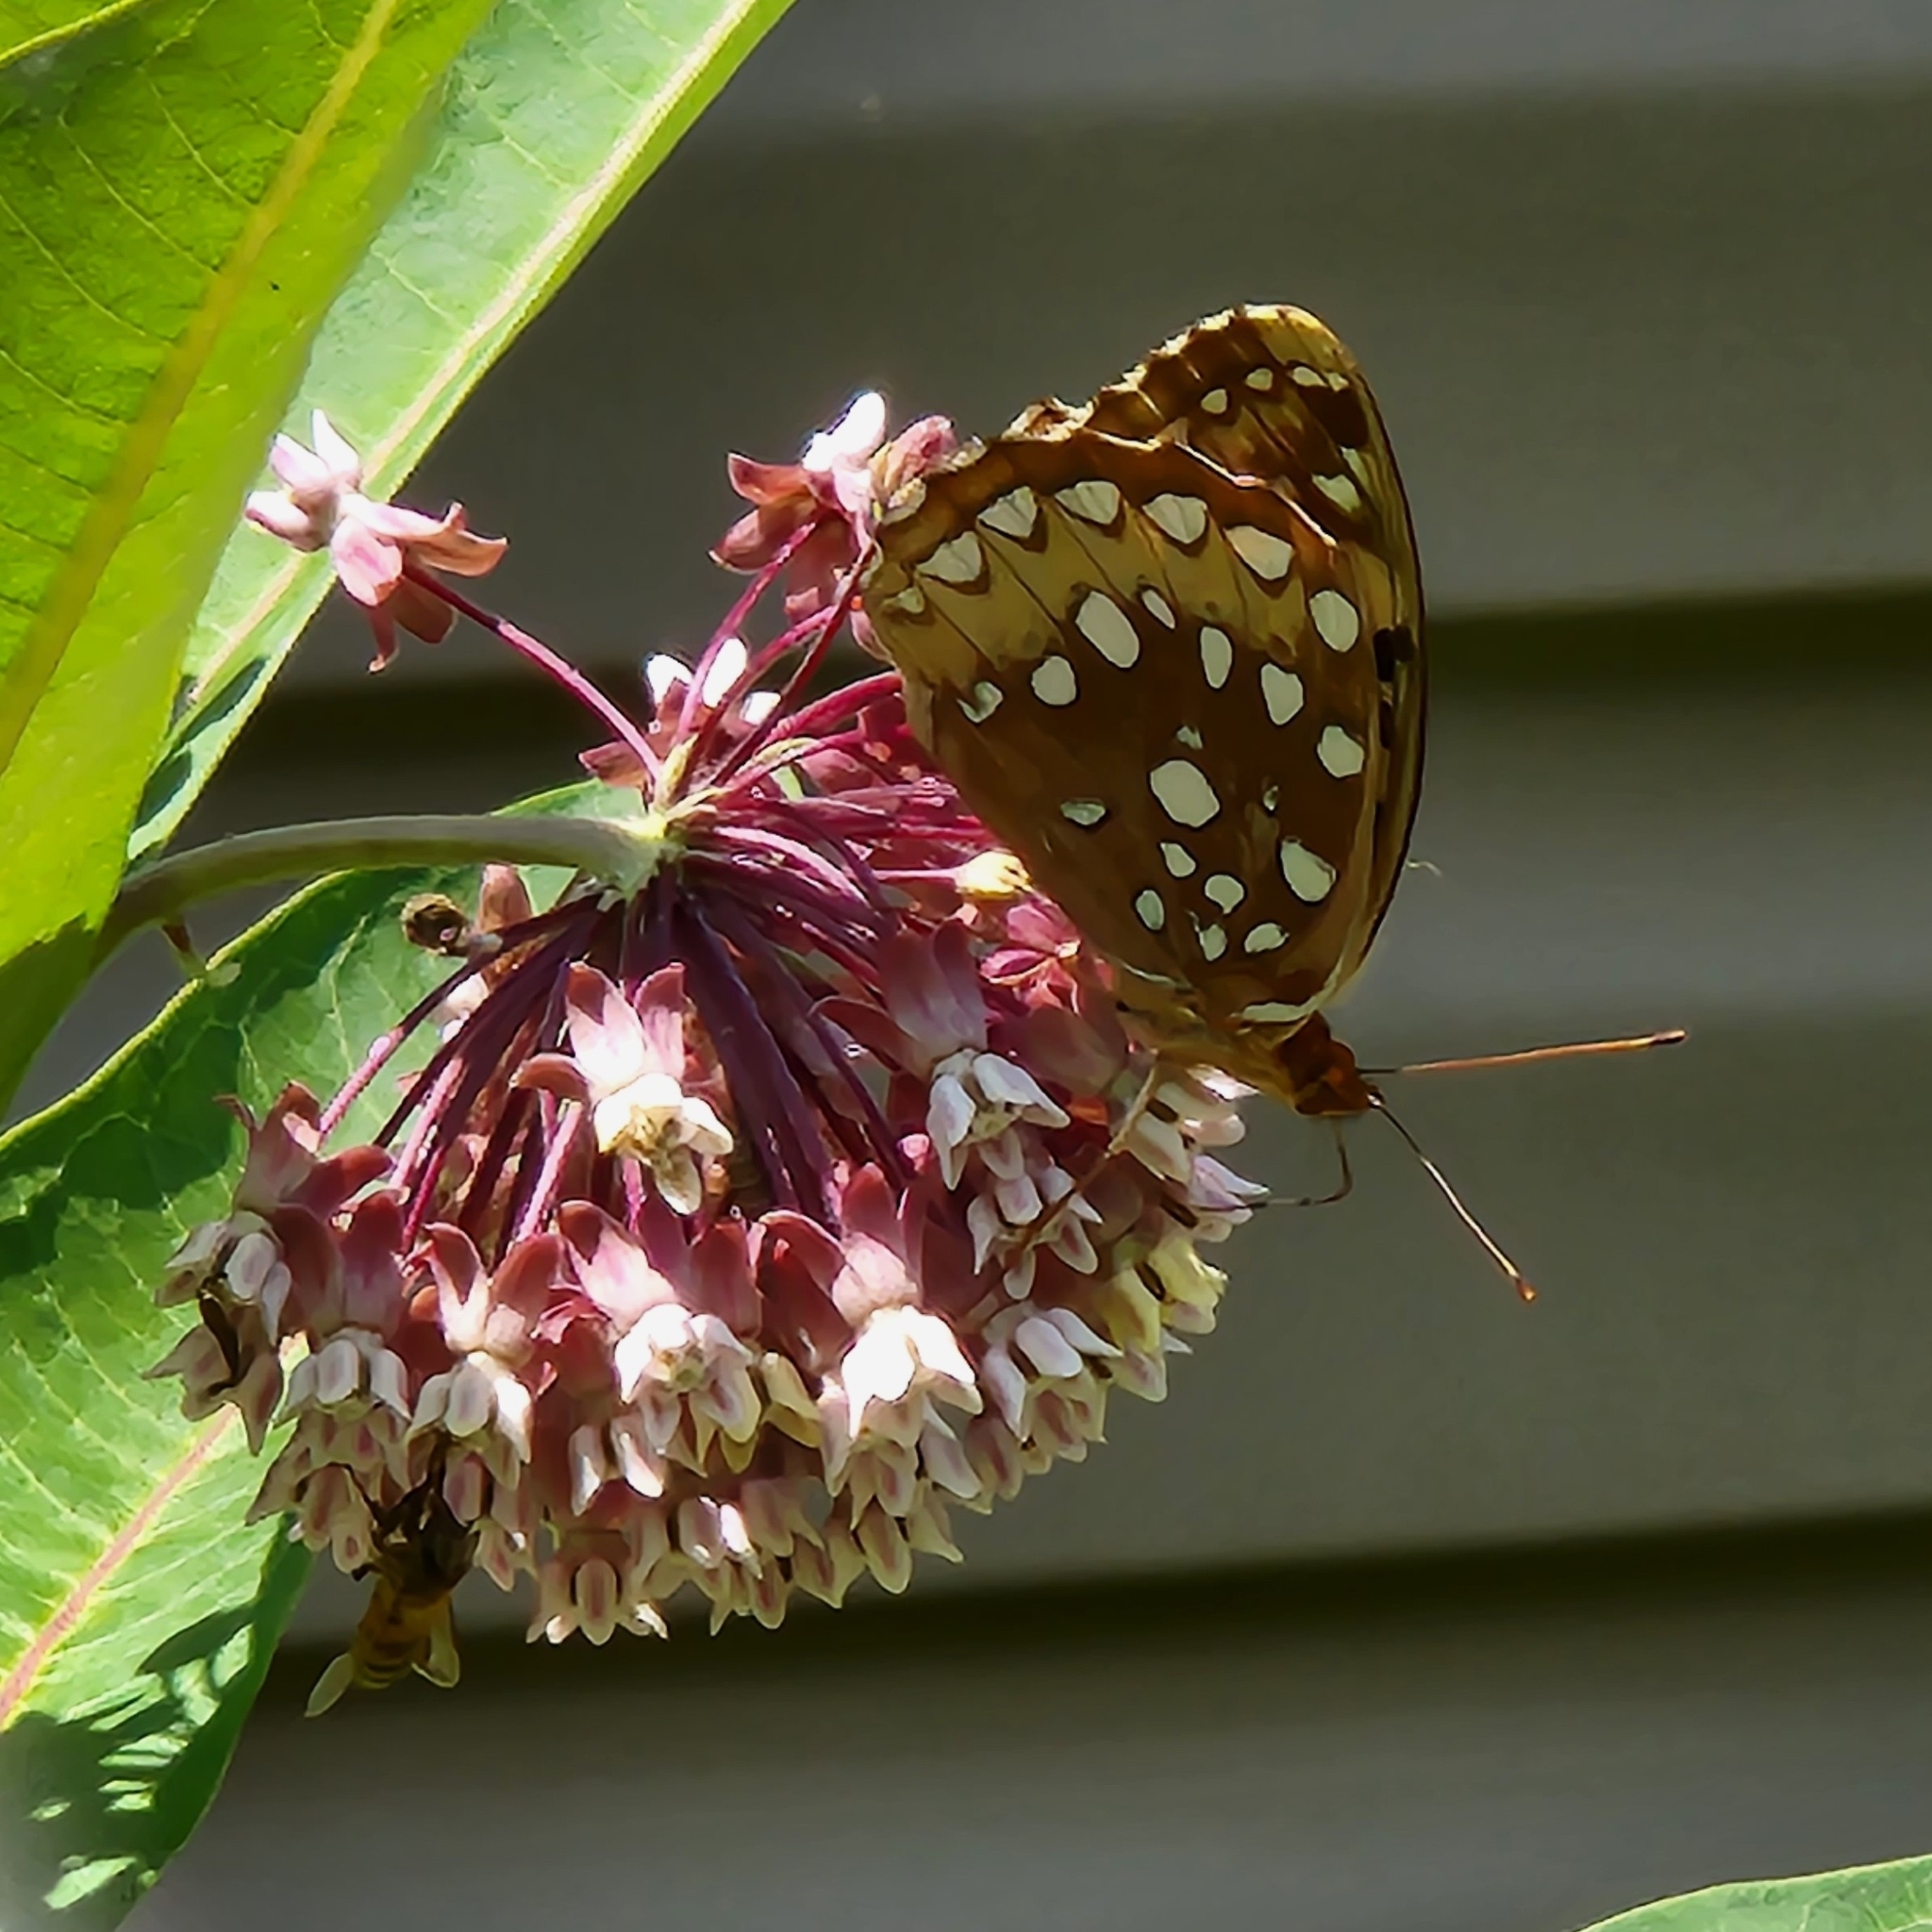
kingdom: Animalia
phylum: Arthropoda
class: Insecta
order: Lepidoptera
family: Nymphalidae
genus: Speyeria
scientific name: Speyeria cybele
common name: Great spangled fritillary
